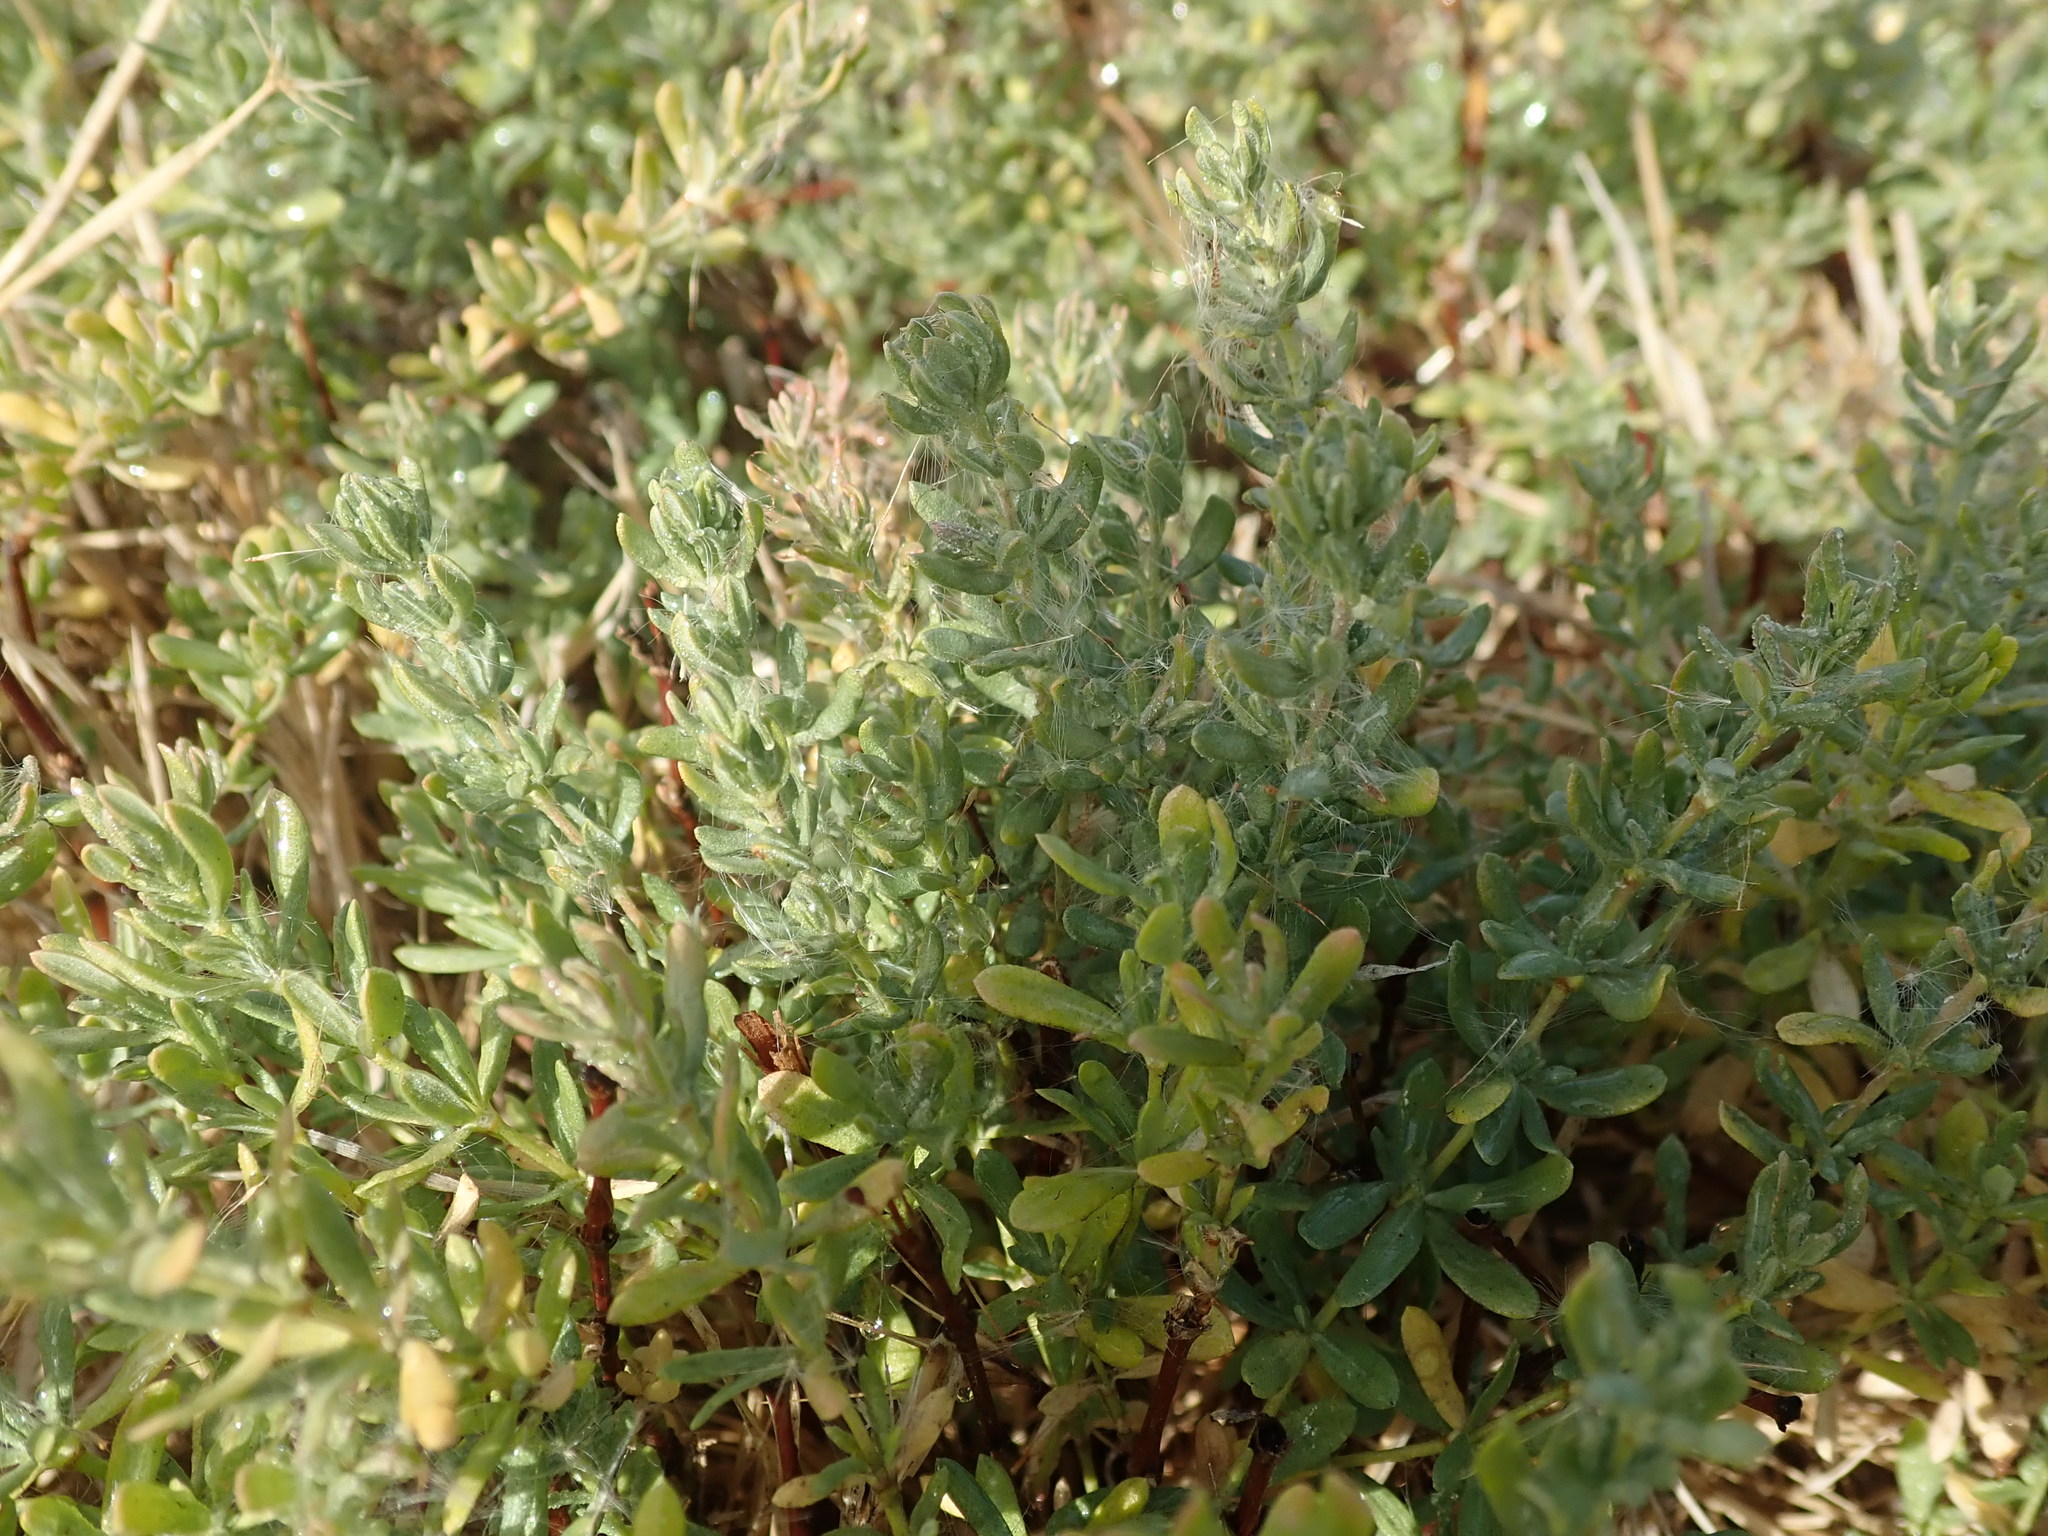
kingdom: Plantae
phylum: Tracheophyta
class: Magnoliopsida
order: Caryophyllales
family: Frankeniaceae
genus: Frankenia
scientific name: Frankenia salina
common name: Alkali seaheath
